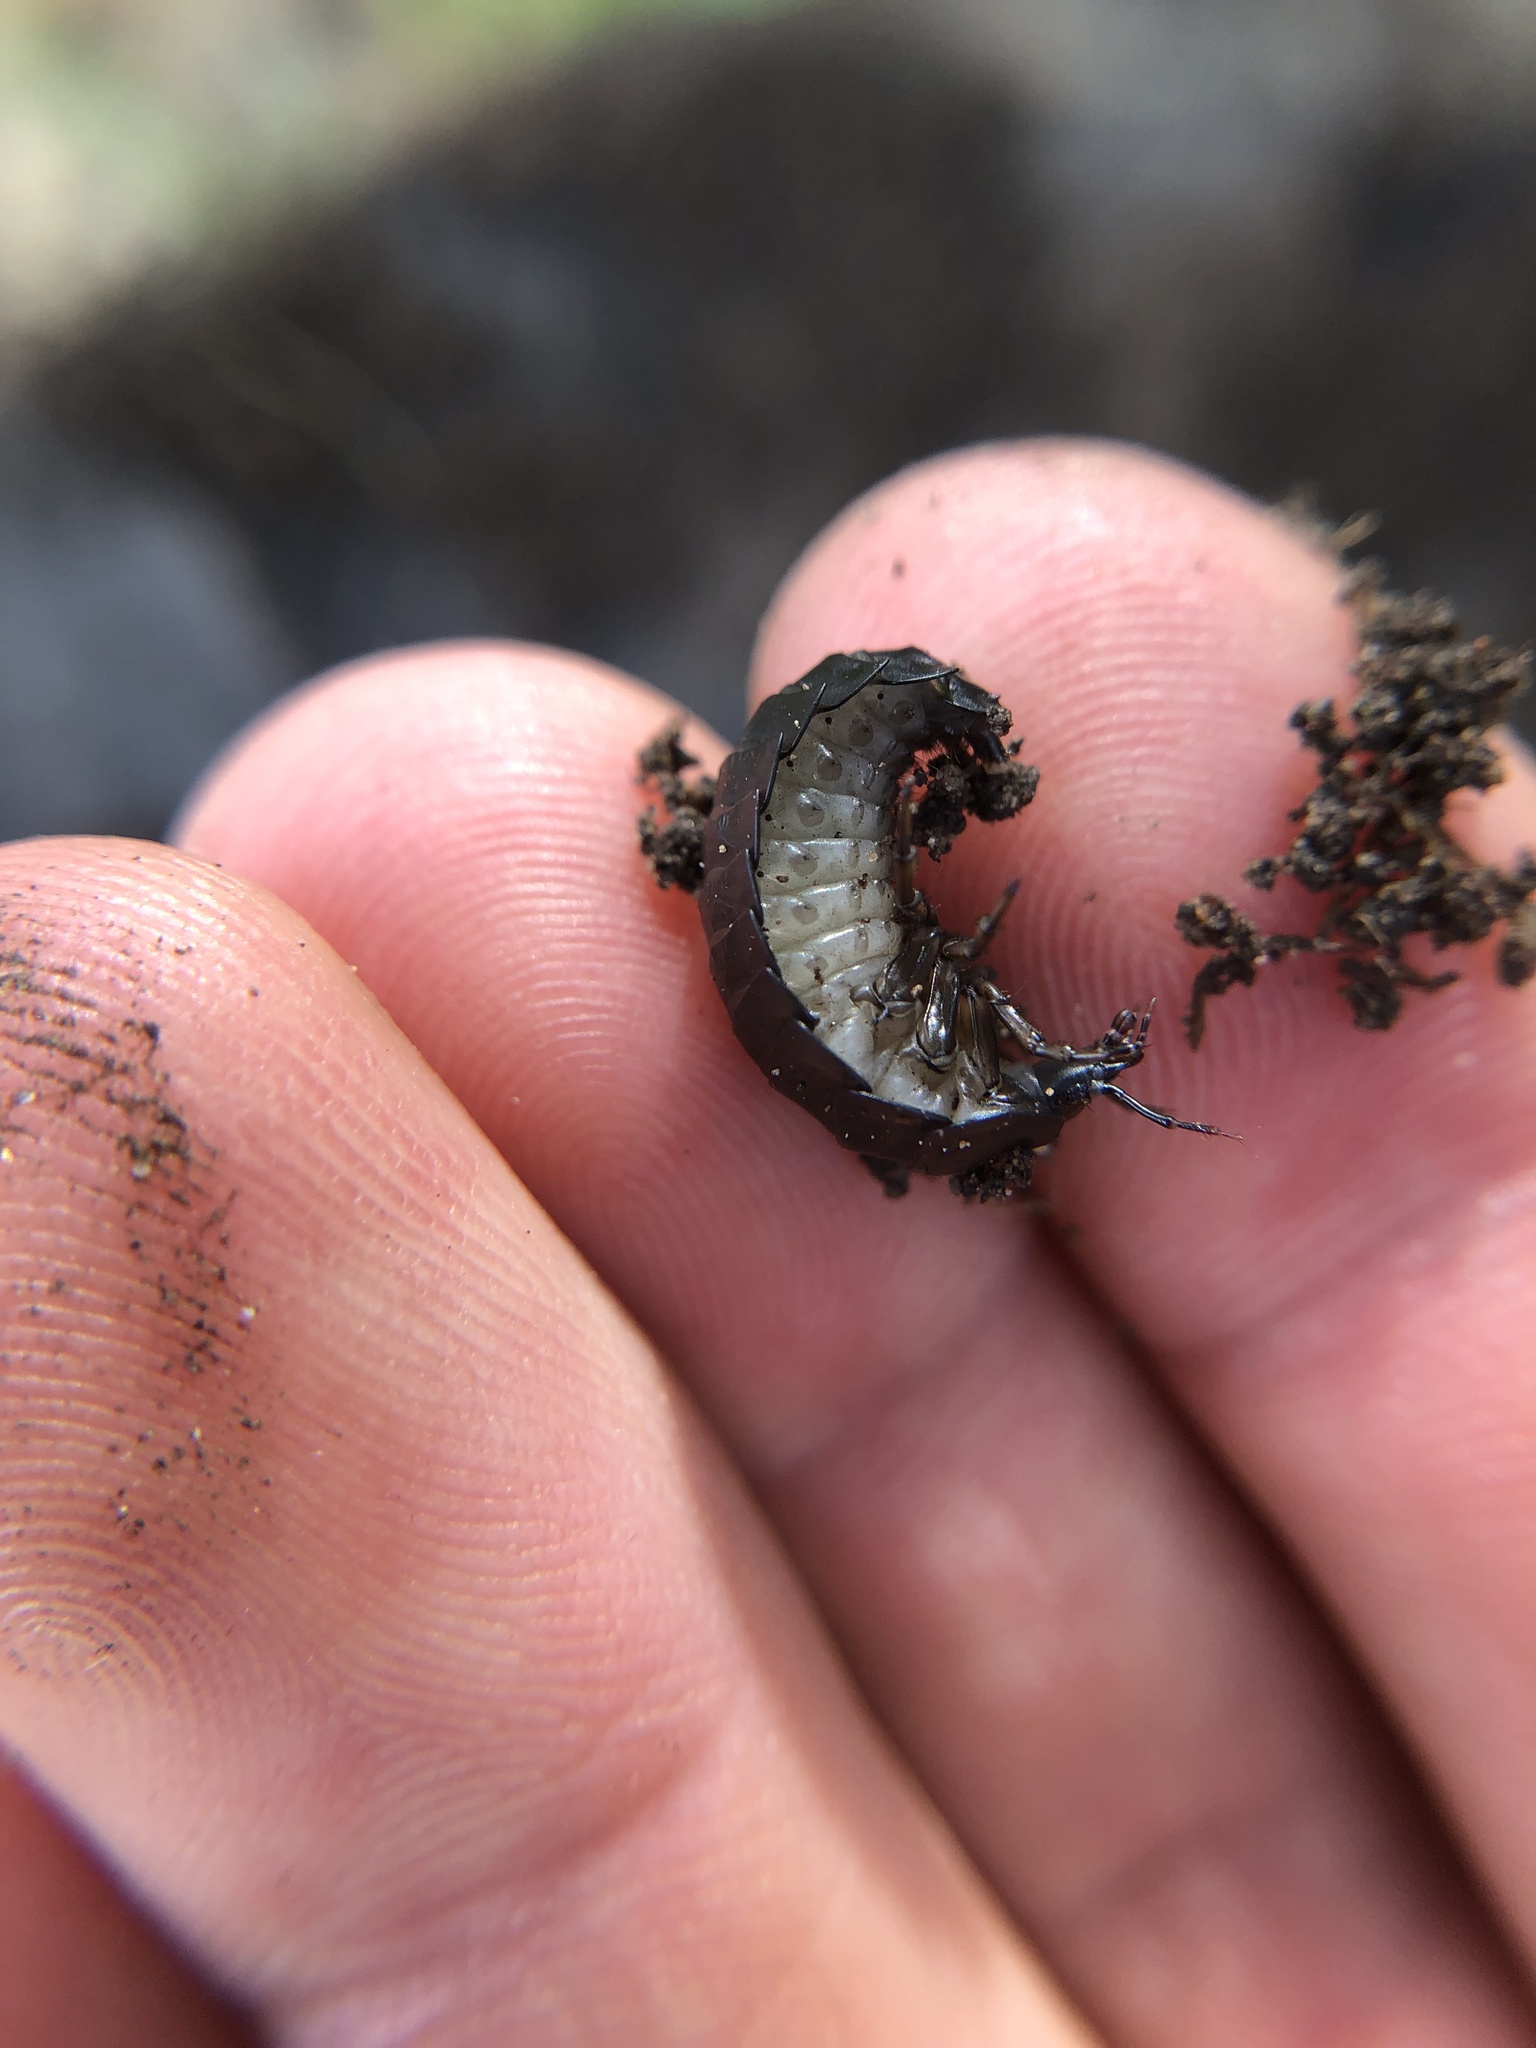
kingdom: Animalia
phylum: Arthropoda
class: Insecta
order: Coleoptera
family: Carabidae
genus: Scaphinotus
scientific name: Scaphinotus
